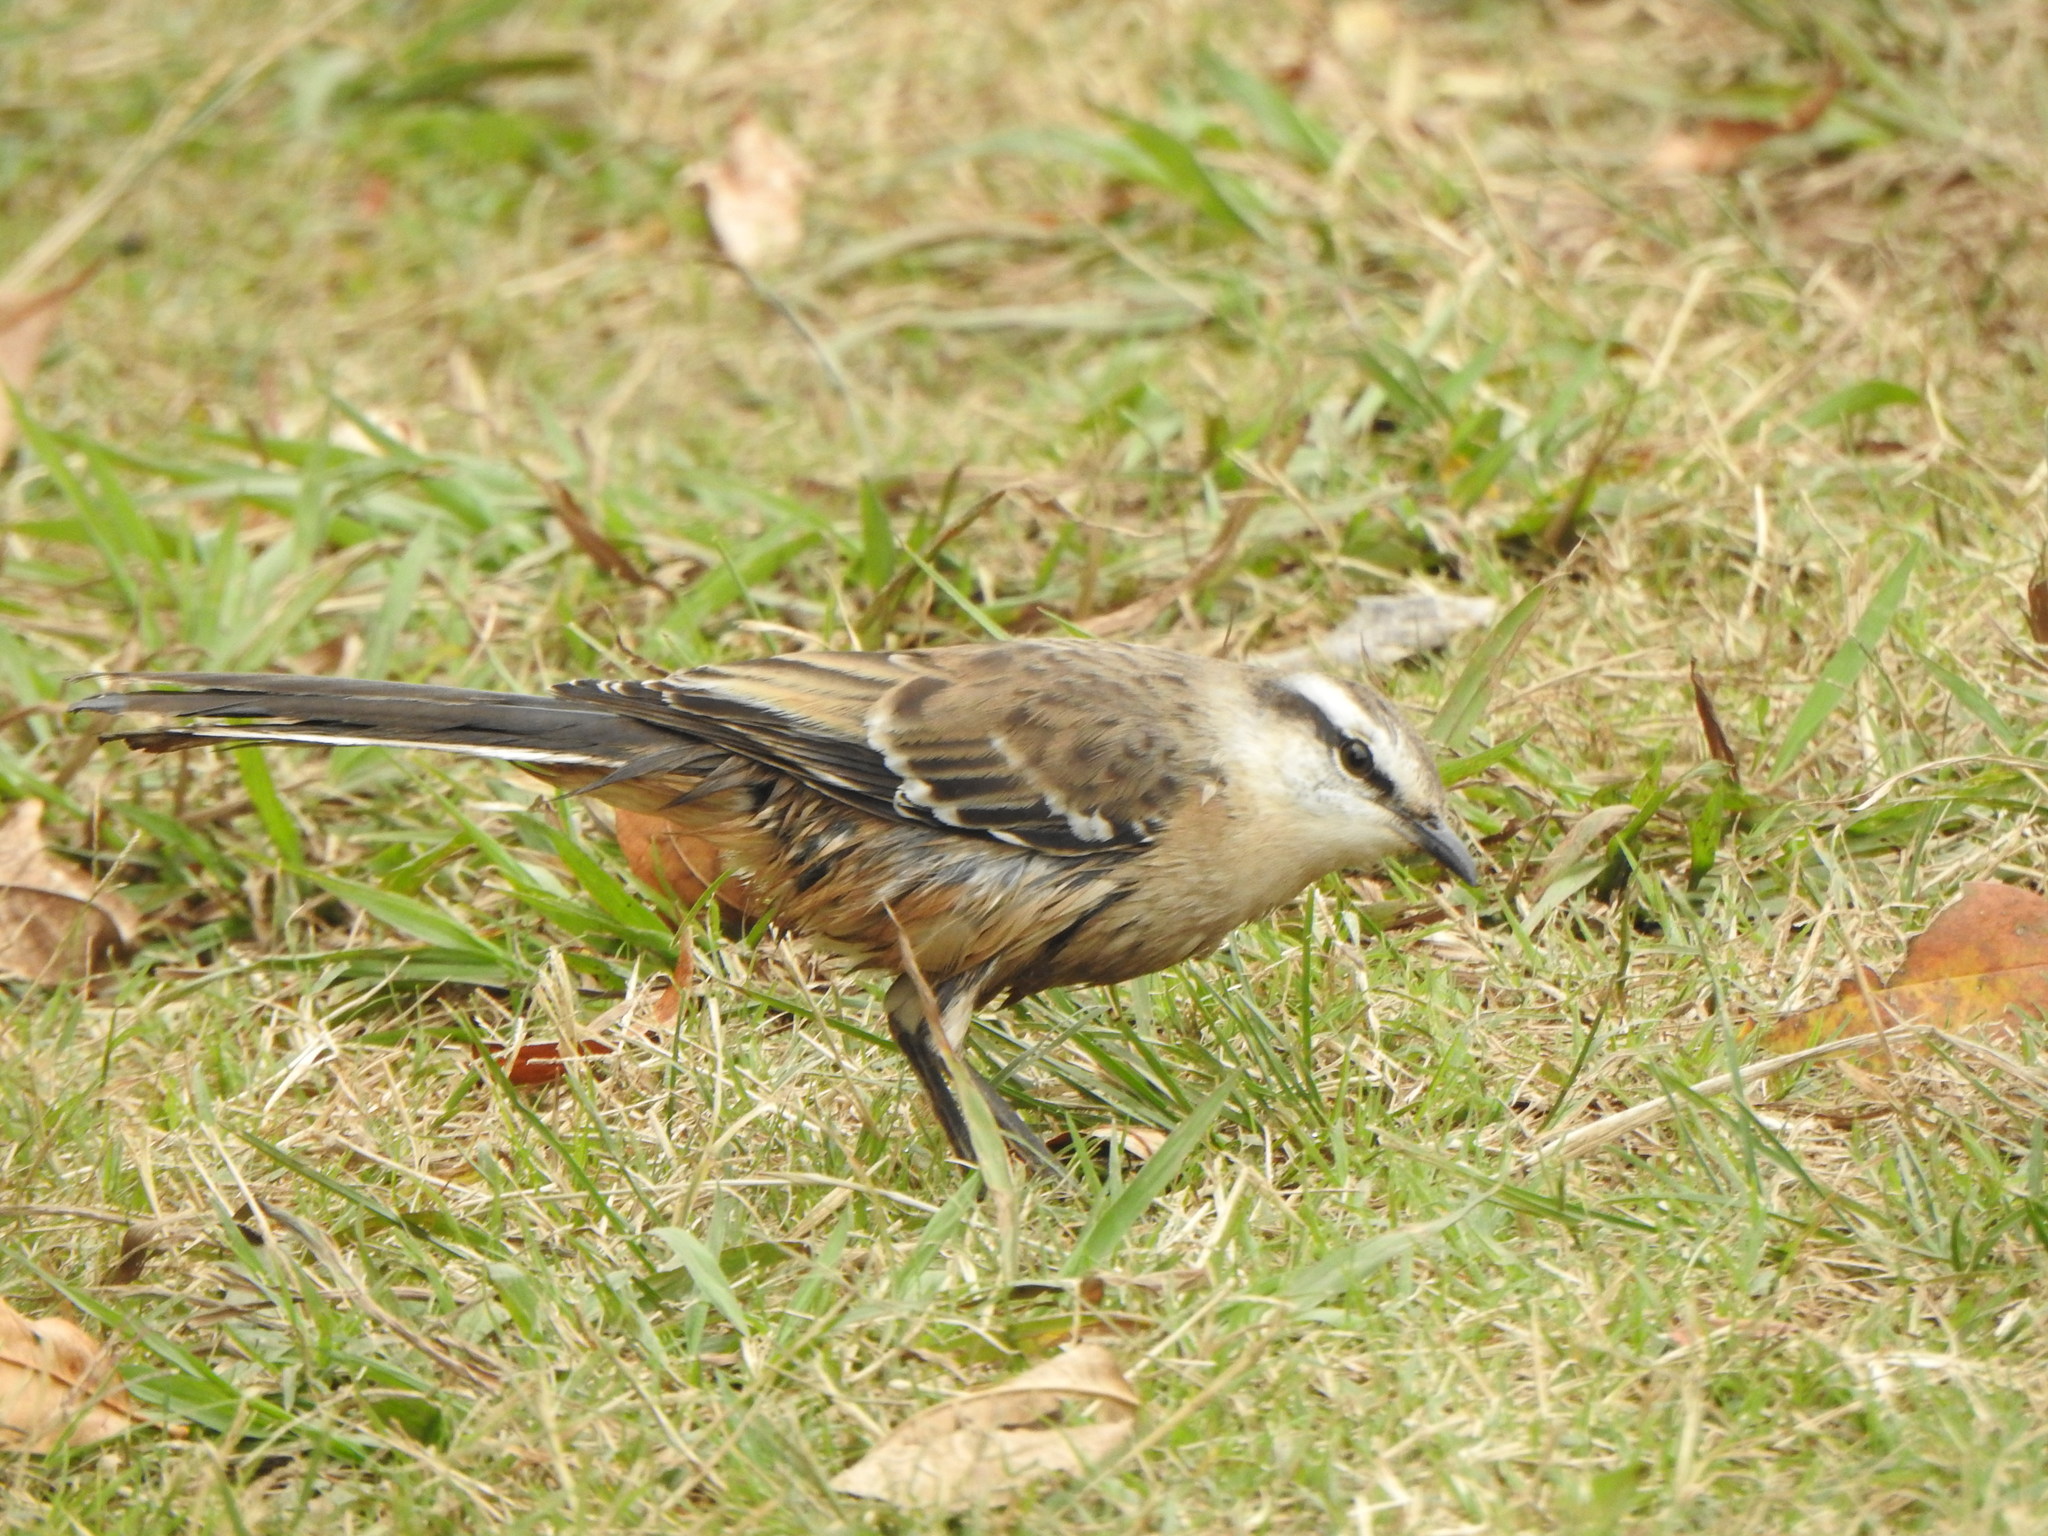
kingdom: Animalia
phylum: Chordata
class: Aves
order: Passeriformes
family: Mimidae
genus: Mimus
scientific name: Mimus saturninus
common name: Chalk-browed mockingbird
